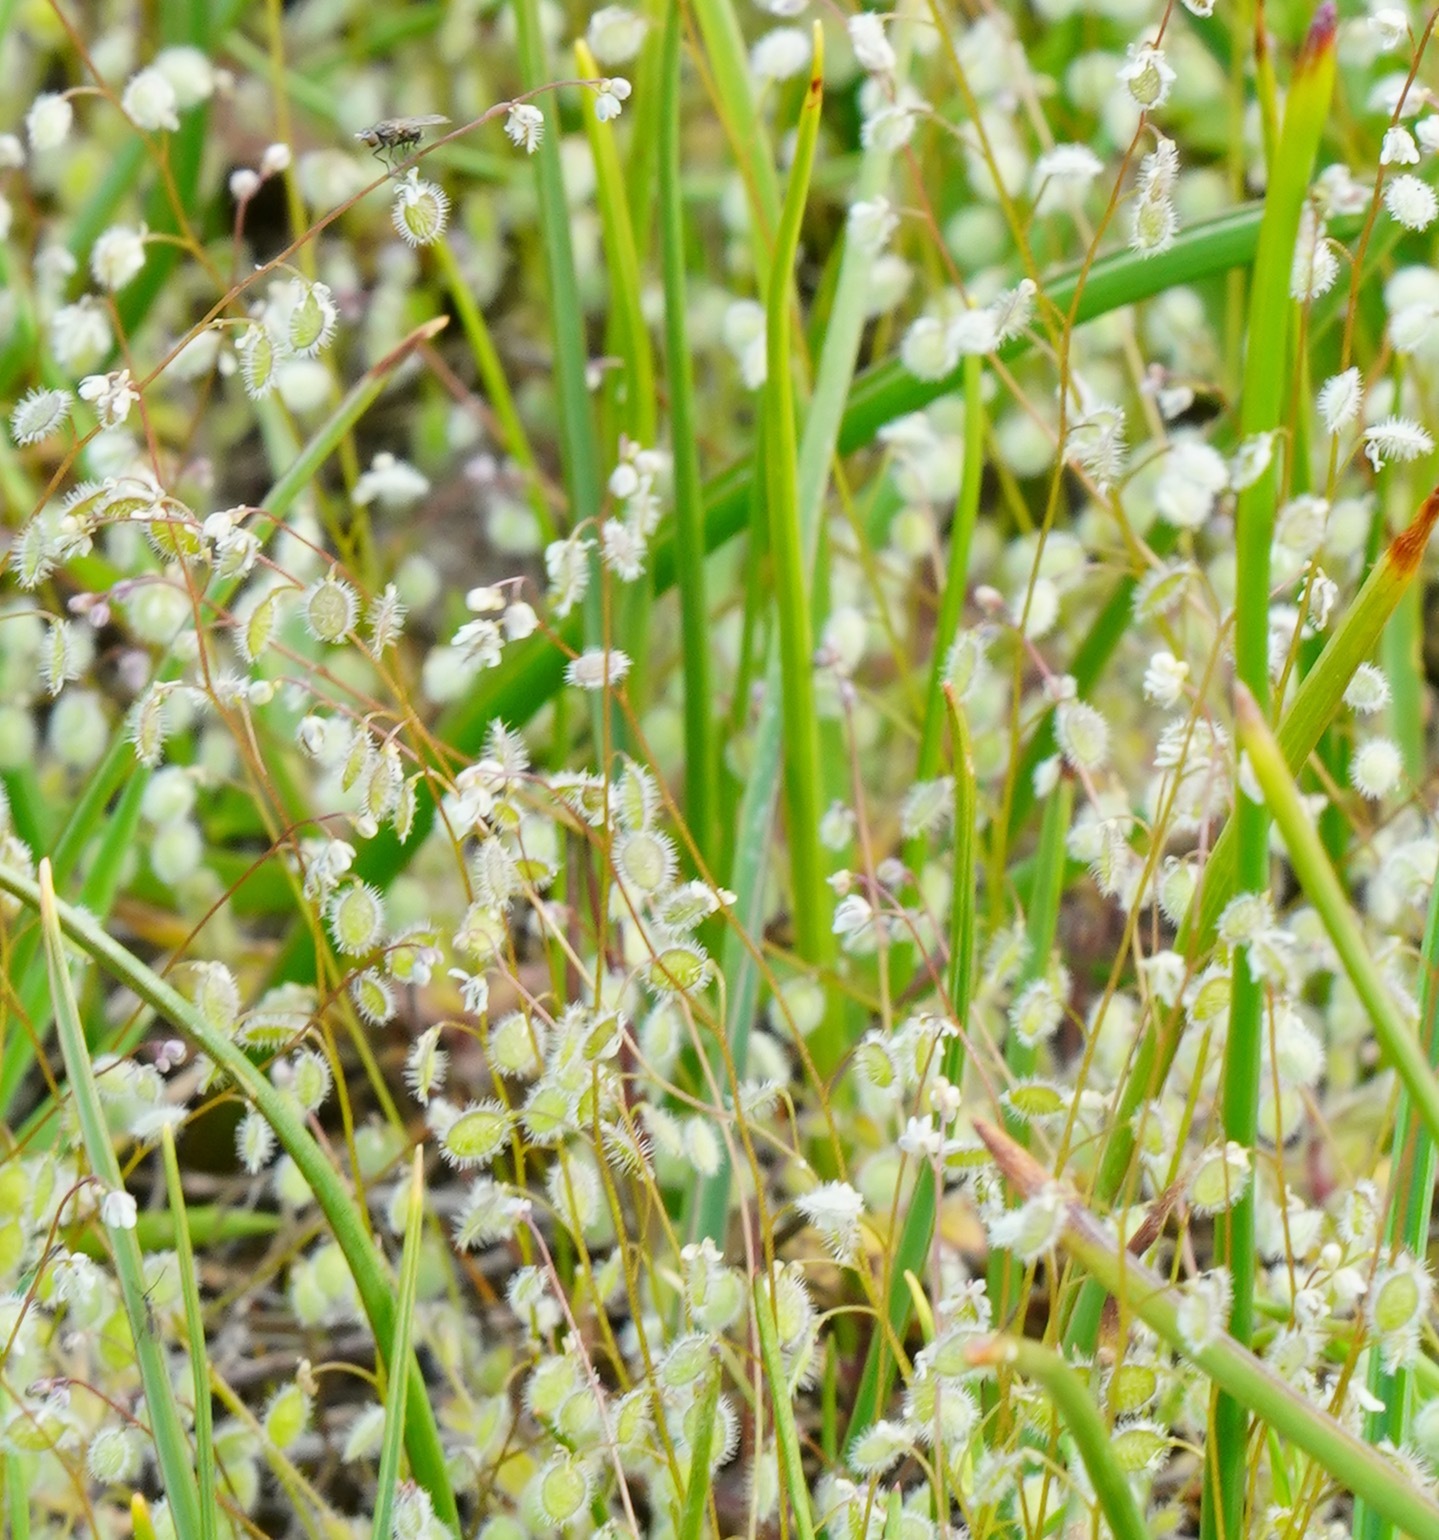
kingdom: Plantae
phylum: Tracheophyta
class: Magnoliopsida
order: Brassicales
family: Brassicaceae
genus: Athysanus
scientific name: Athysanus pusillus
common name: Common sandweed
